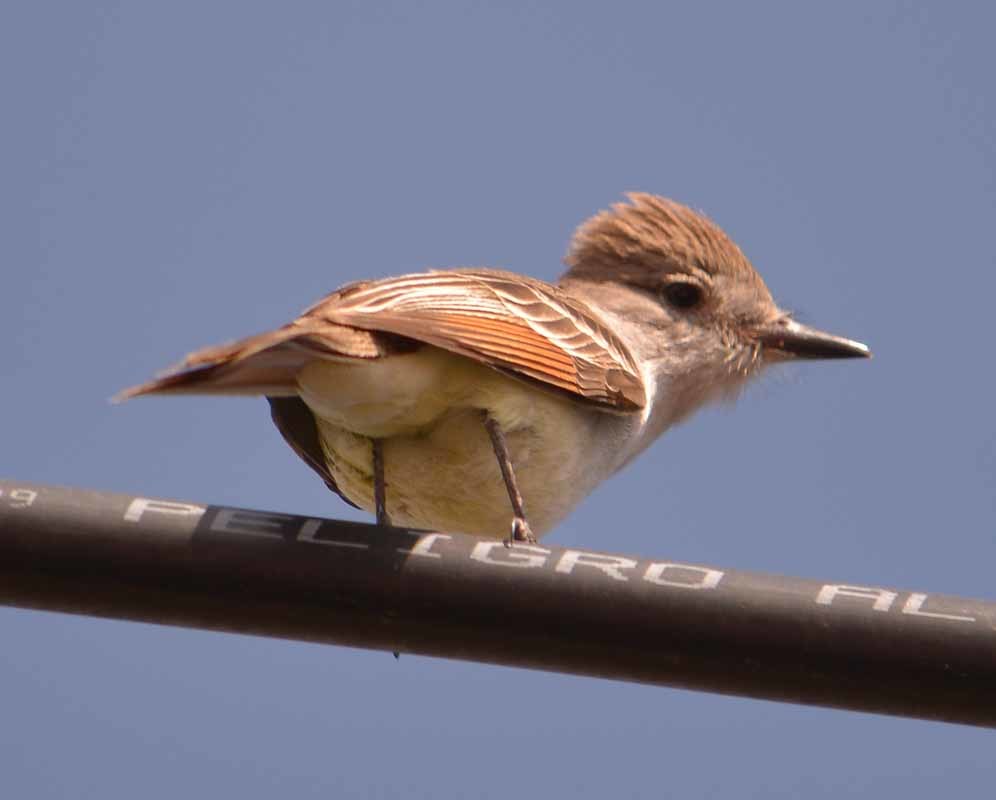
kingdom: Animalia
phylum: Chordata
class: Aves
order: Passeriformes
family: Tyrannidae
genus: Myiarchus
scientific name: Myiarchus cinerascens
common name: Ash-throated flycatcher
